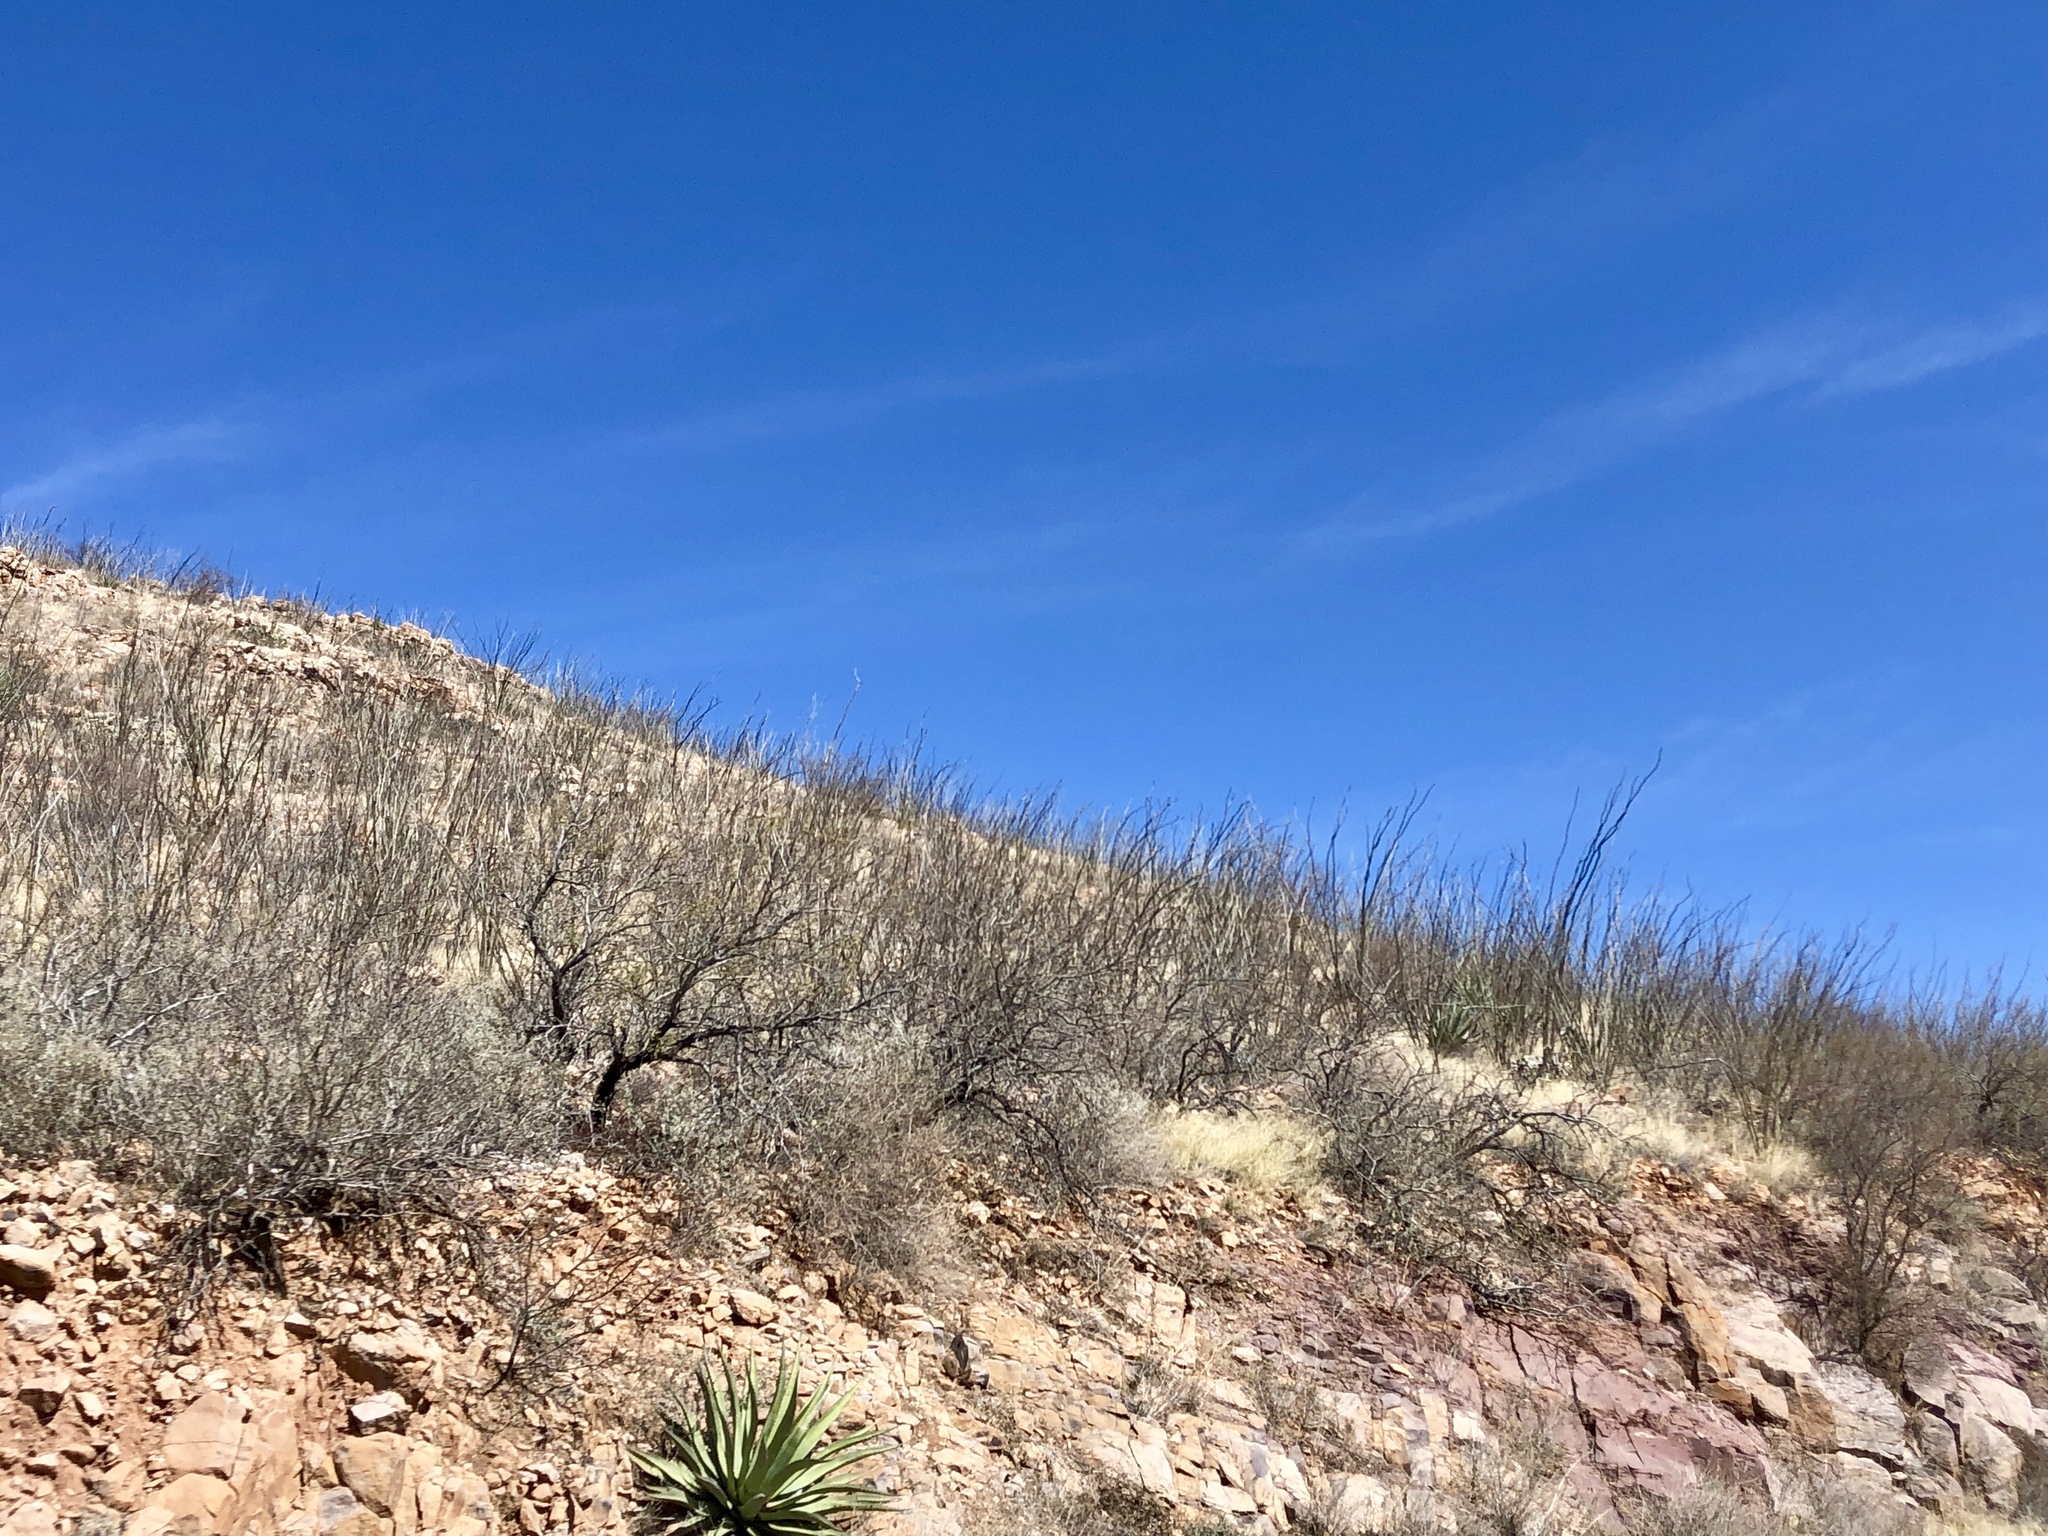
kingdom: Plantae
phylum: Tracheophyta
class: Magnoliopsida
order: Ericales
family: Fouquieriaceae
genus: Fouquieria
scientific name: Fouquieria splendens
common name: Vine-cactus
